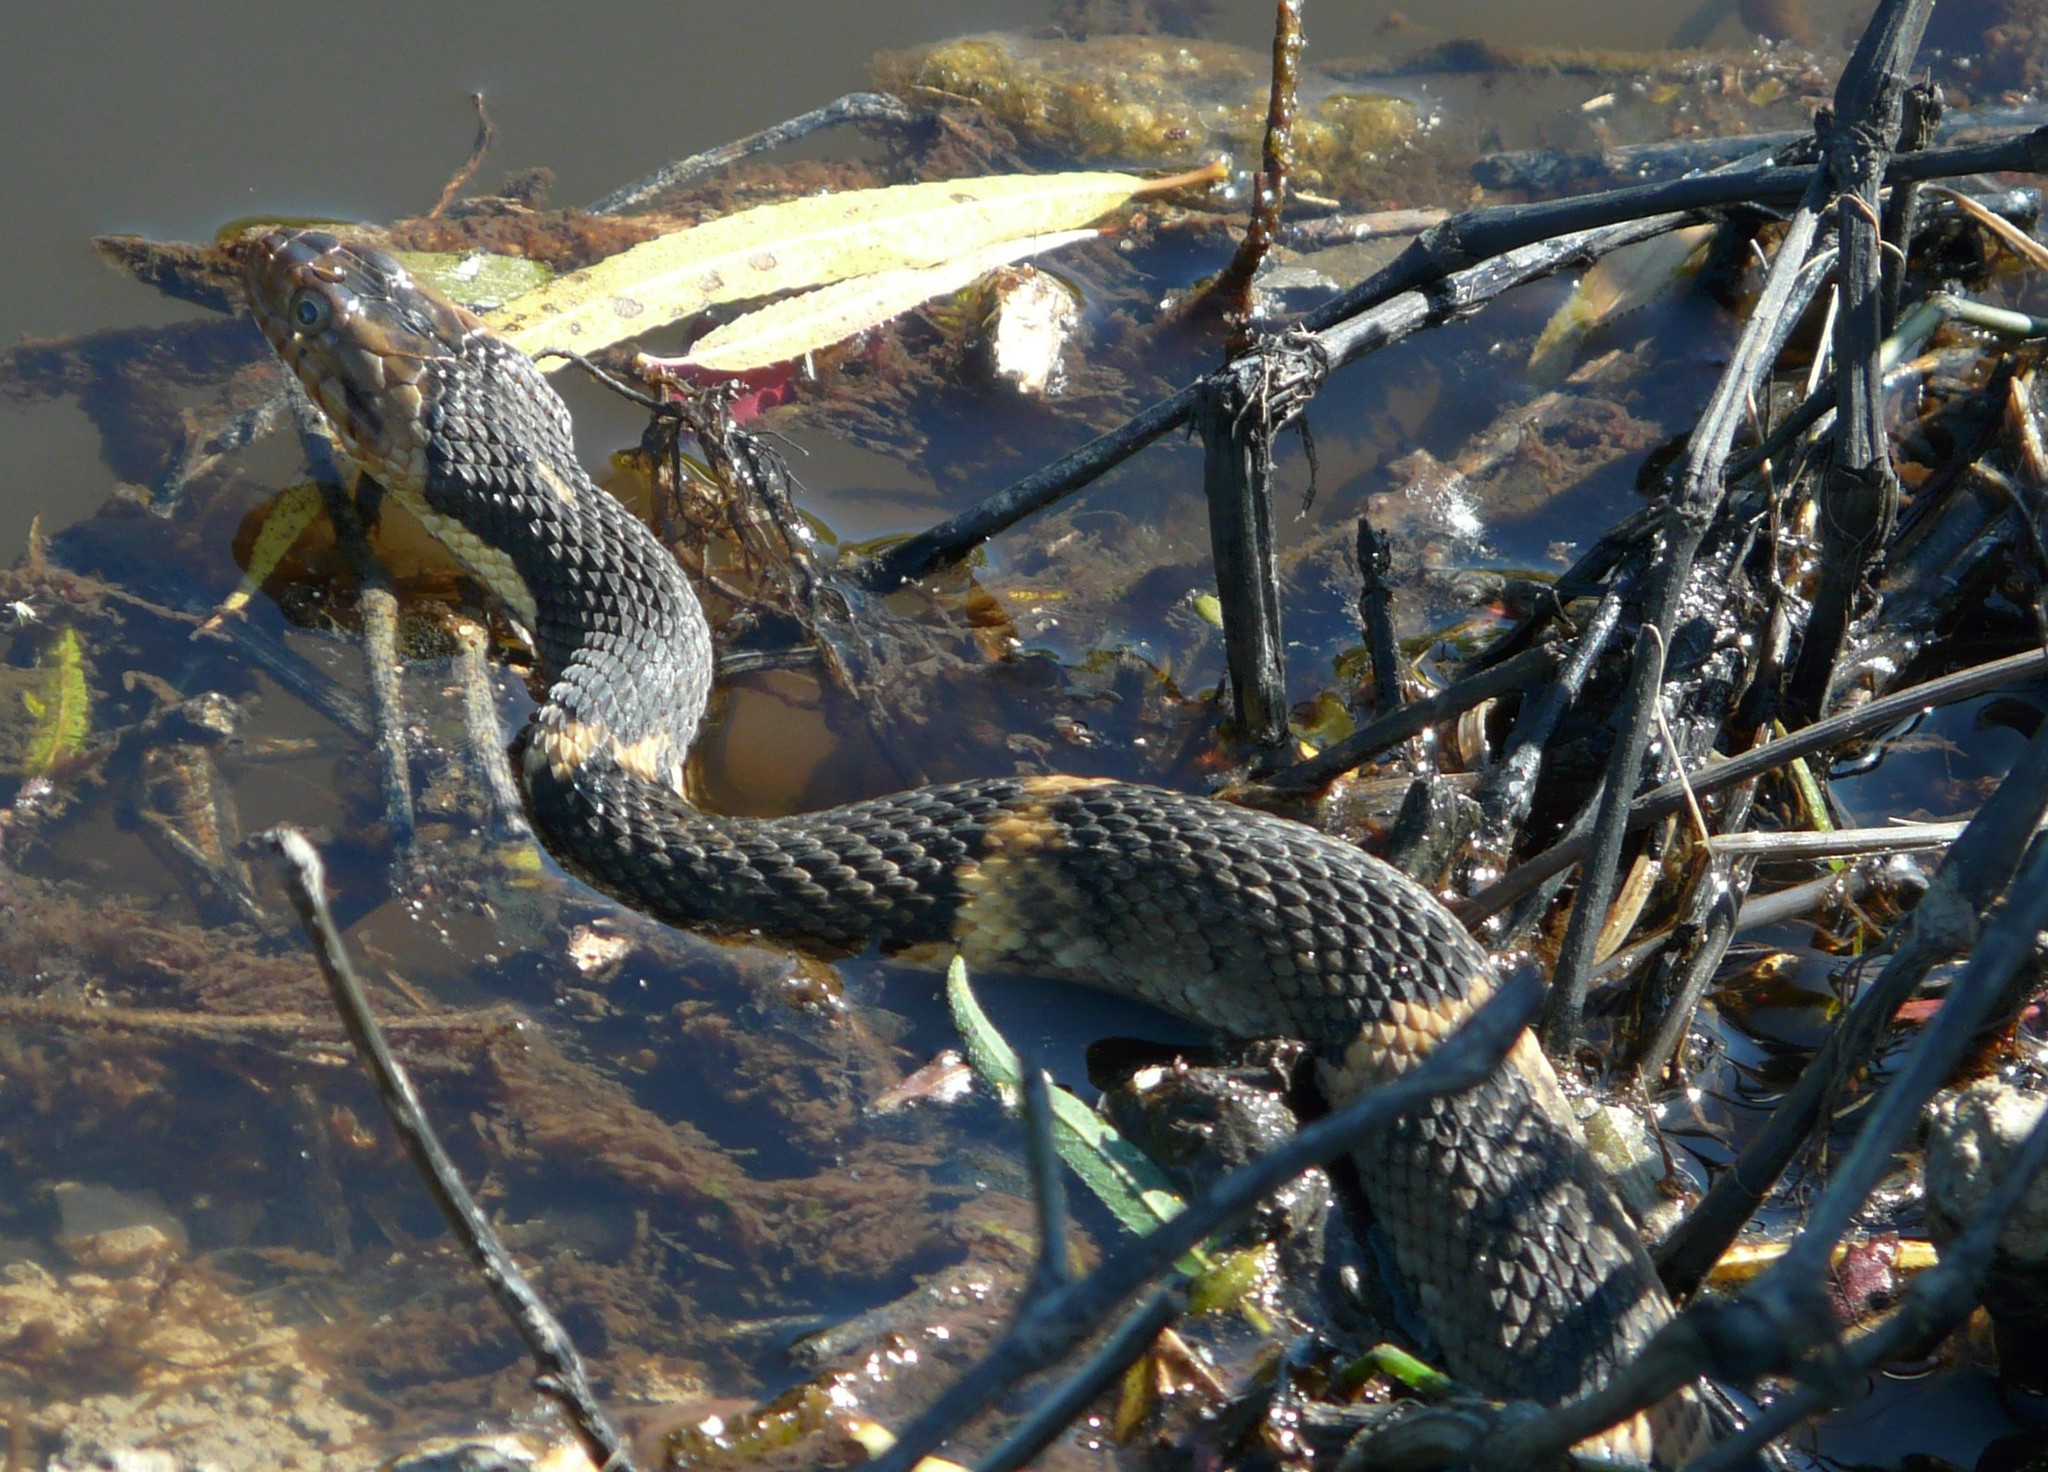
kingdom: Animalia
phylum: Chordata
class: Squamata
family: Colubridae
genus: Nerodia
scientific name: Nerodia fasciata
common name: Southern water snake
